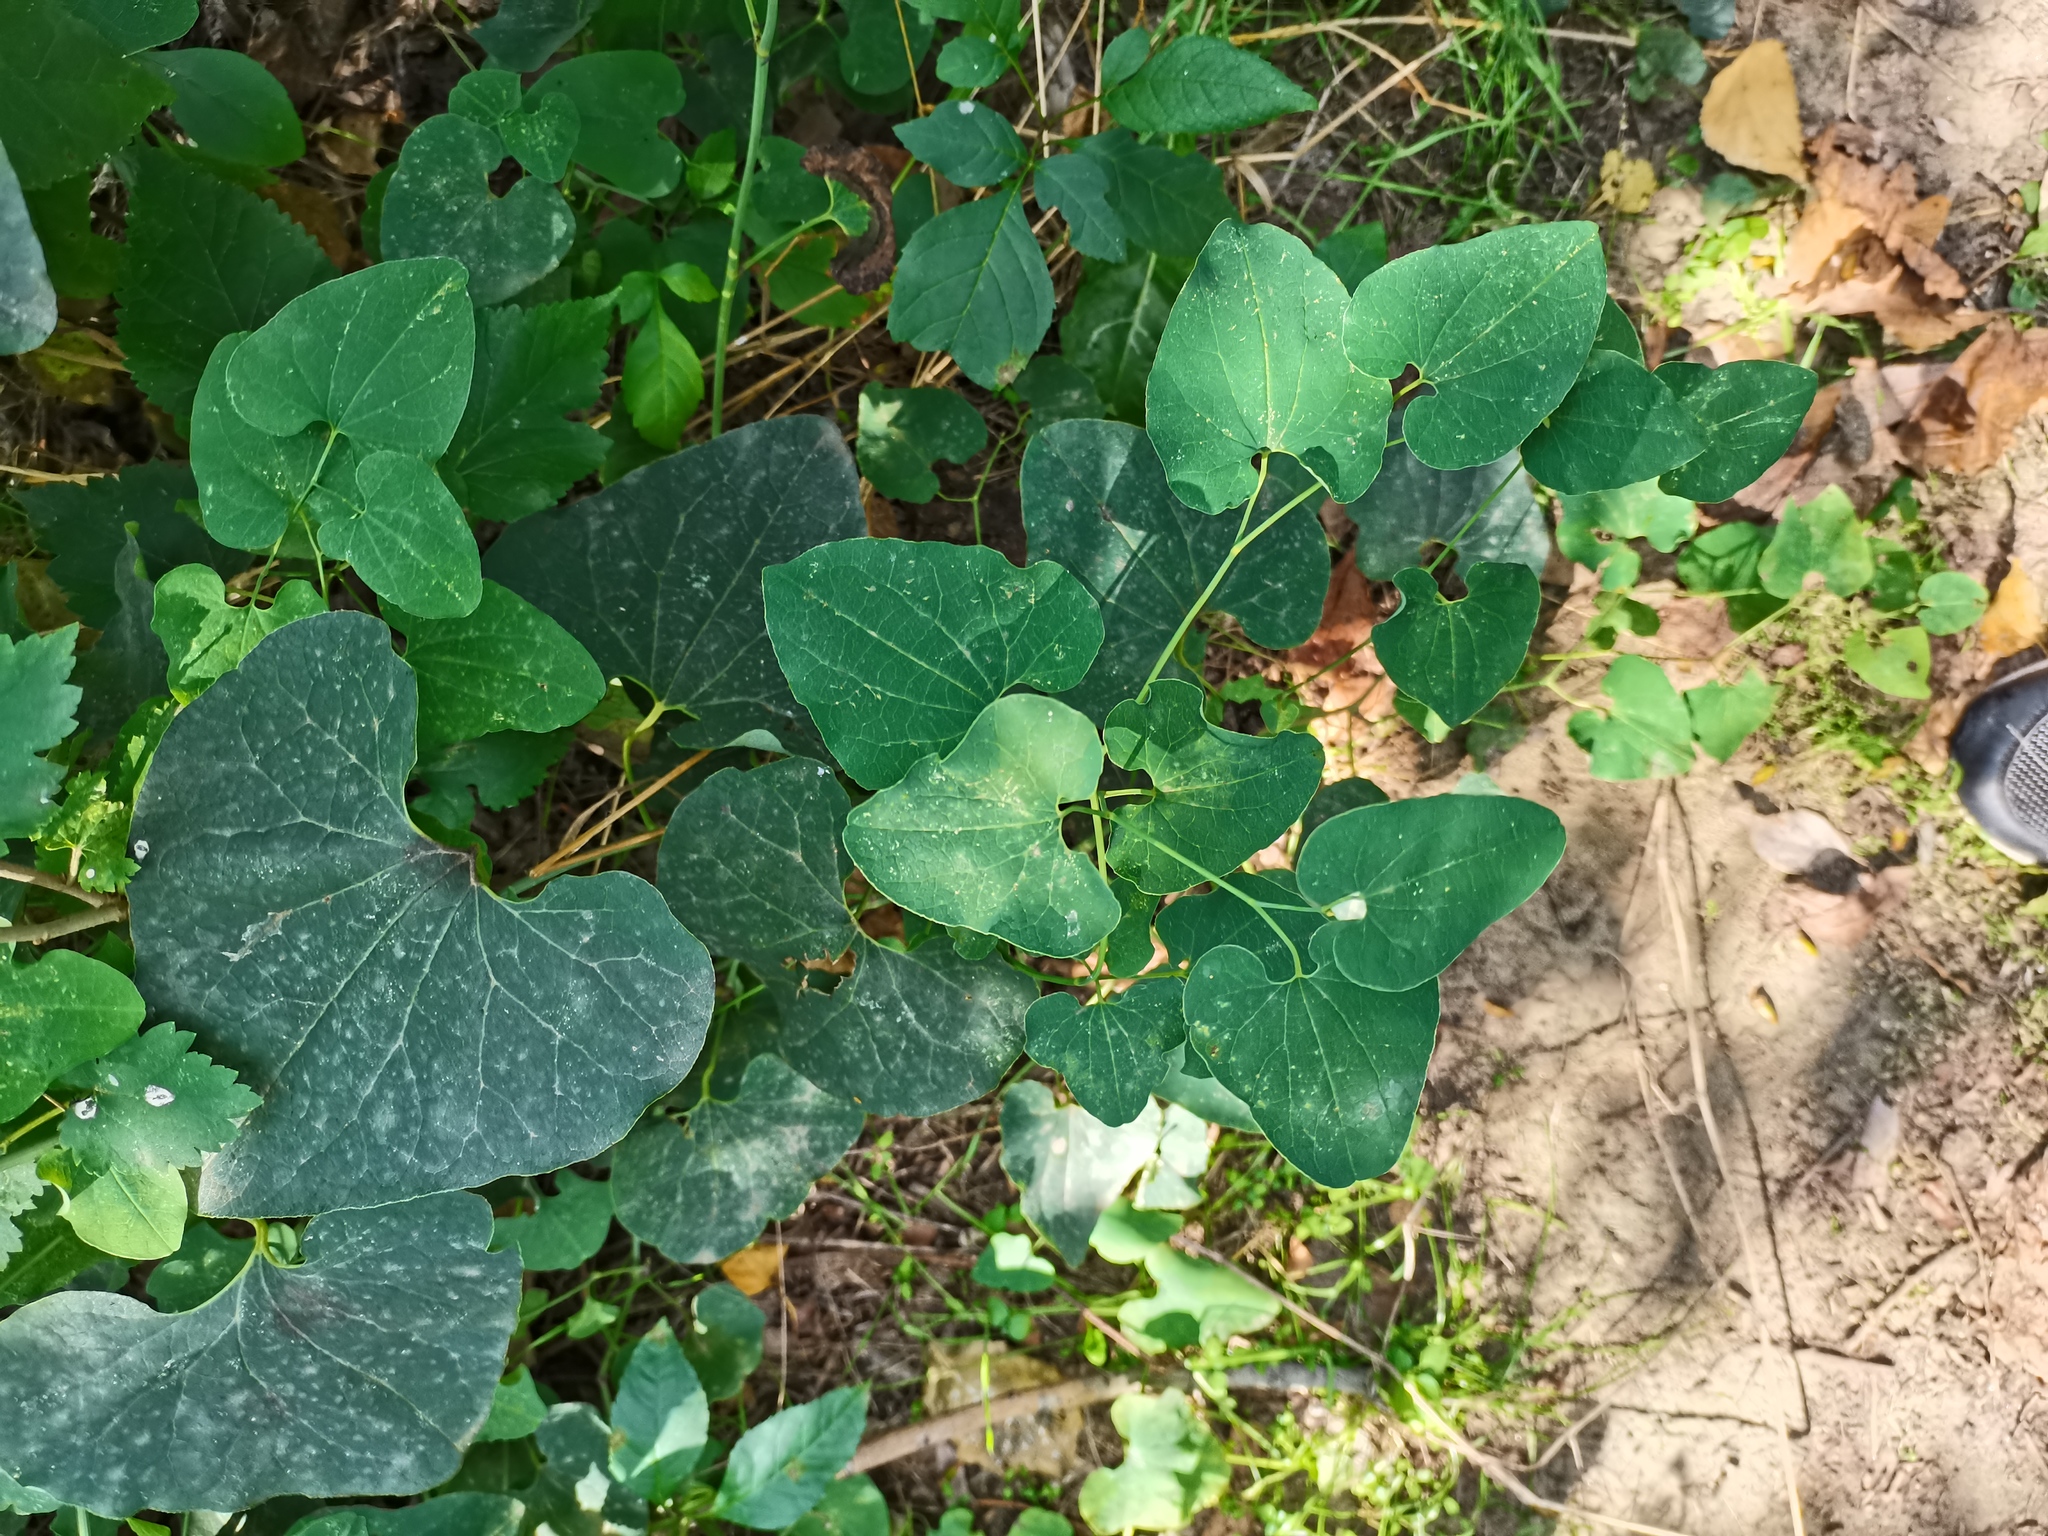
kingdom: Plantae
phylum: Tracheophyta
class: Magnoliopsida
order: Piperales
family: Aristolochiaceae
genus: Aristolochia
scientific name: Aristolochia clematitis
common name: Birthwort
